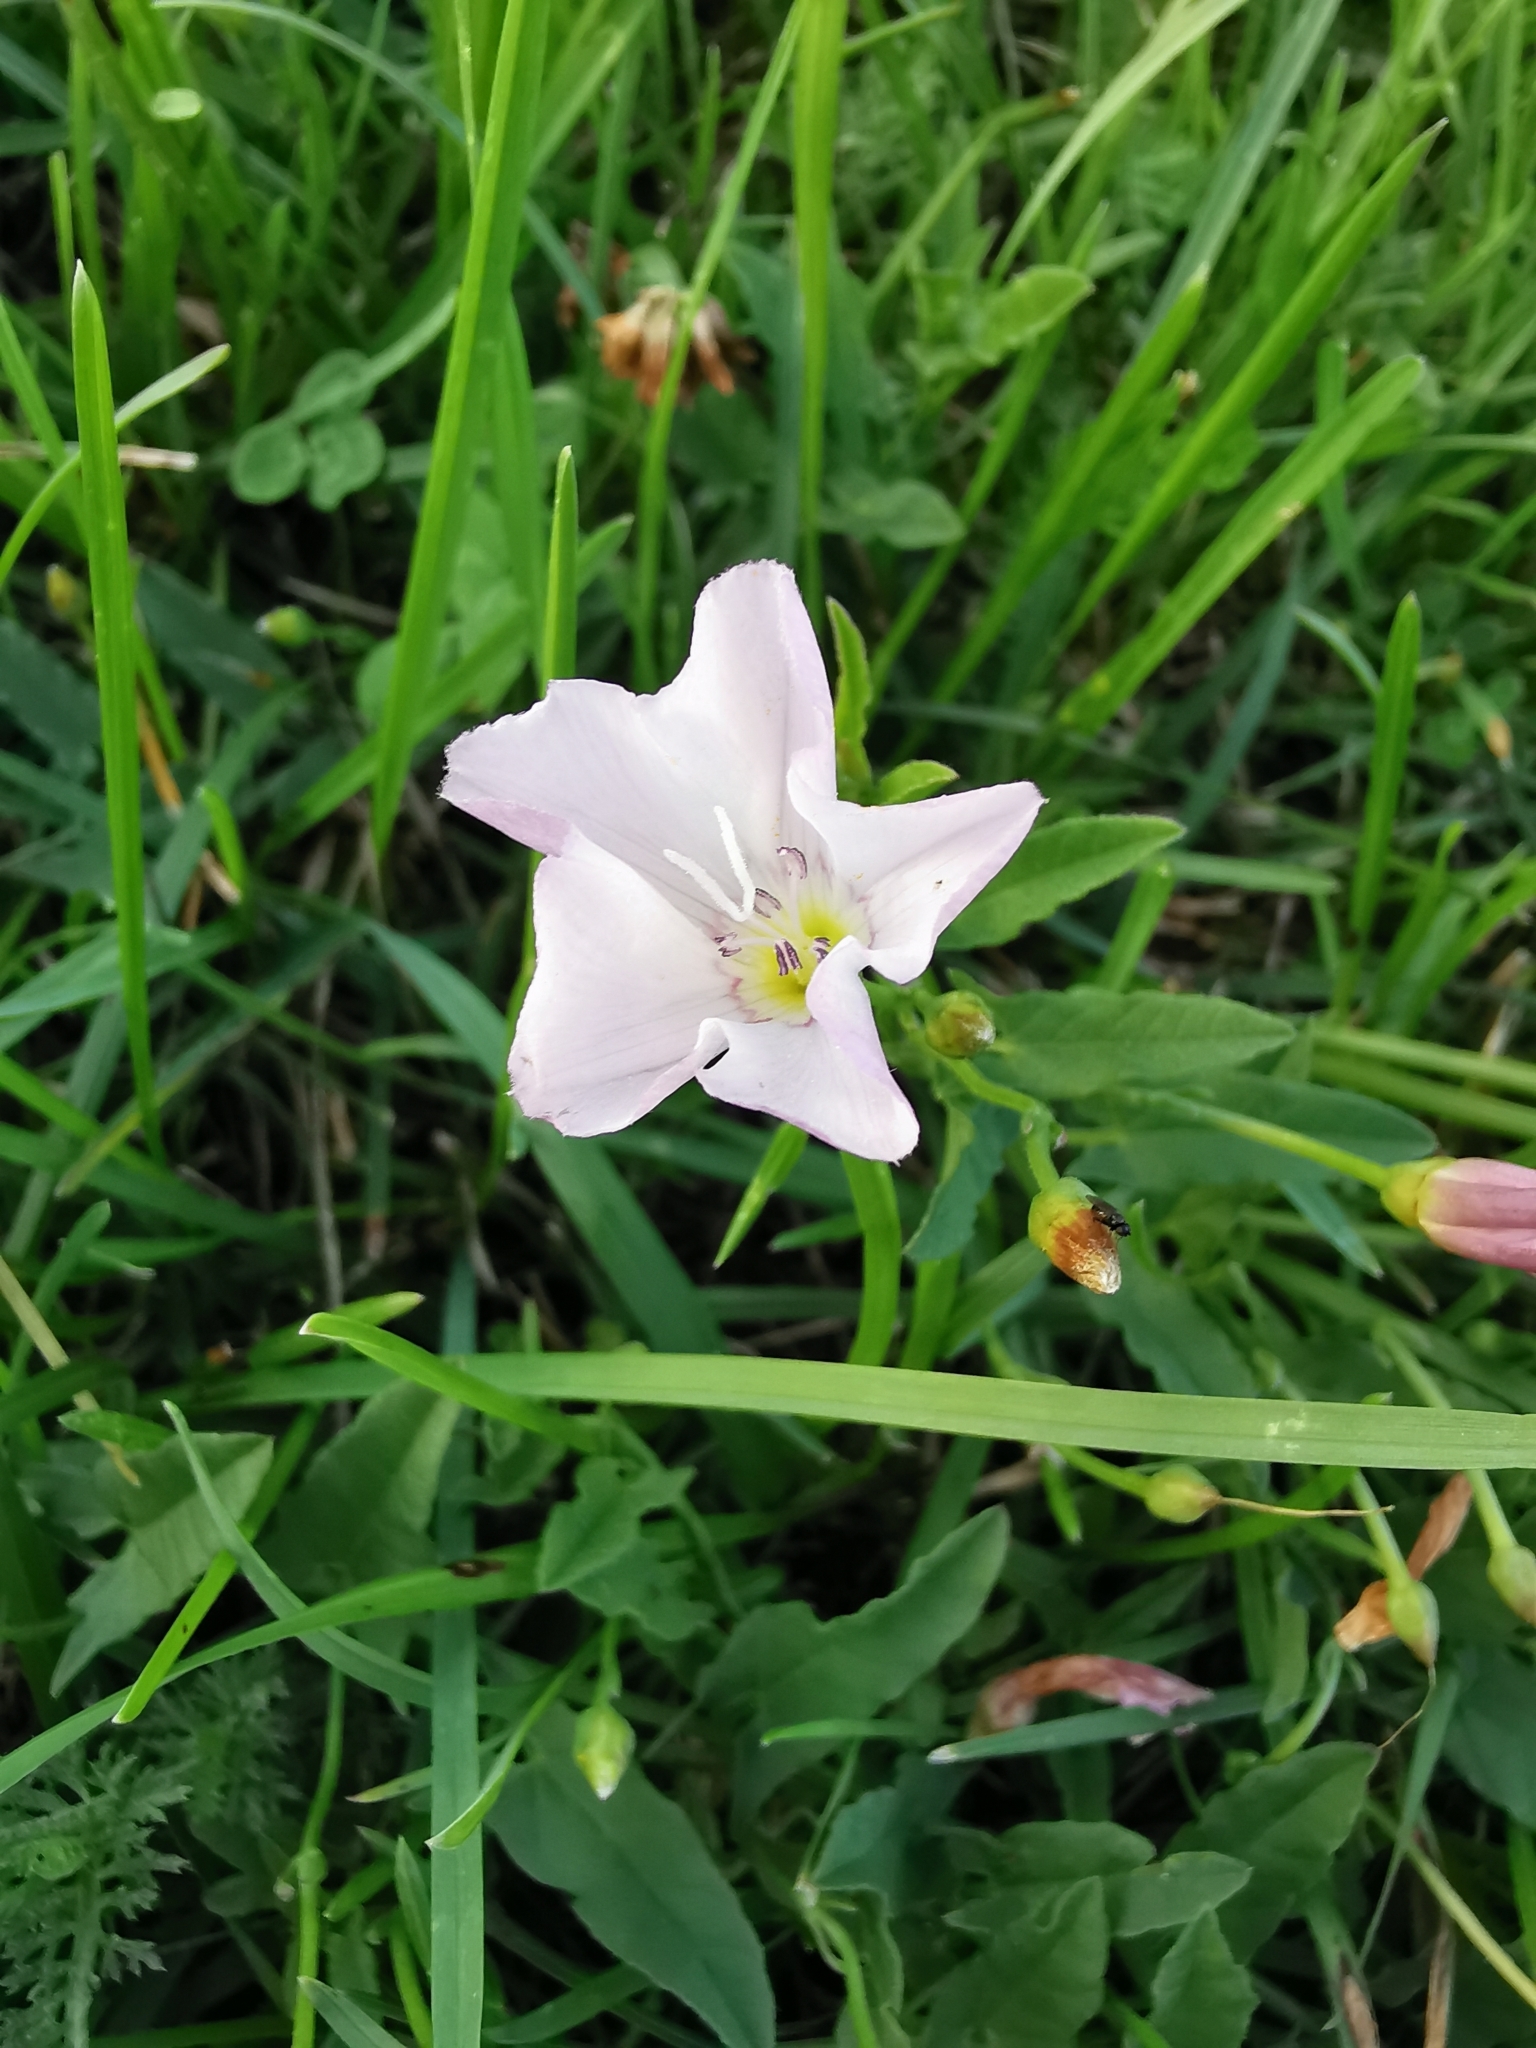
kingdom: Plantae
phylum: Tracheophyta
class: Magnoliopsida
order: Solanales
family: Convolvulaceae
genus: Convolvulus
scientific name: Convolvulus arvensis
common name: Field bindweed
